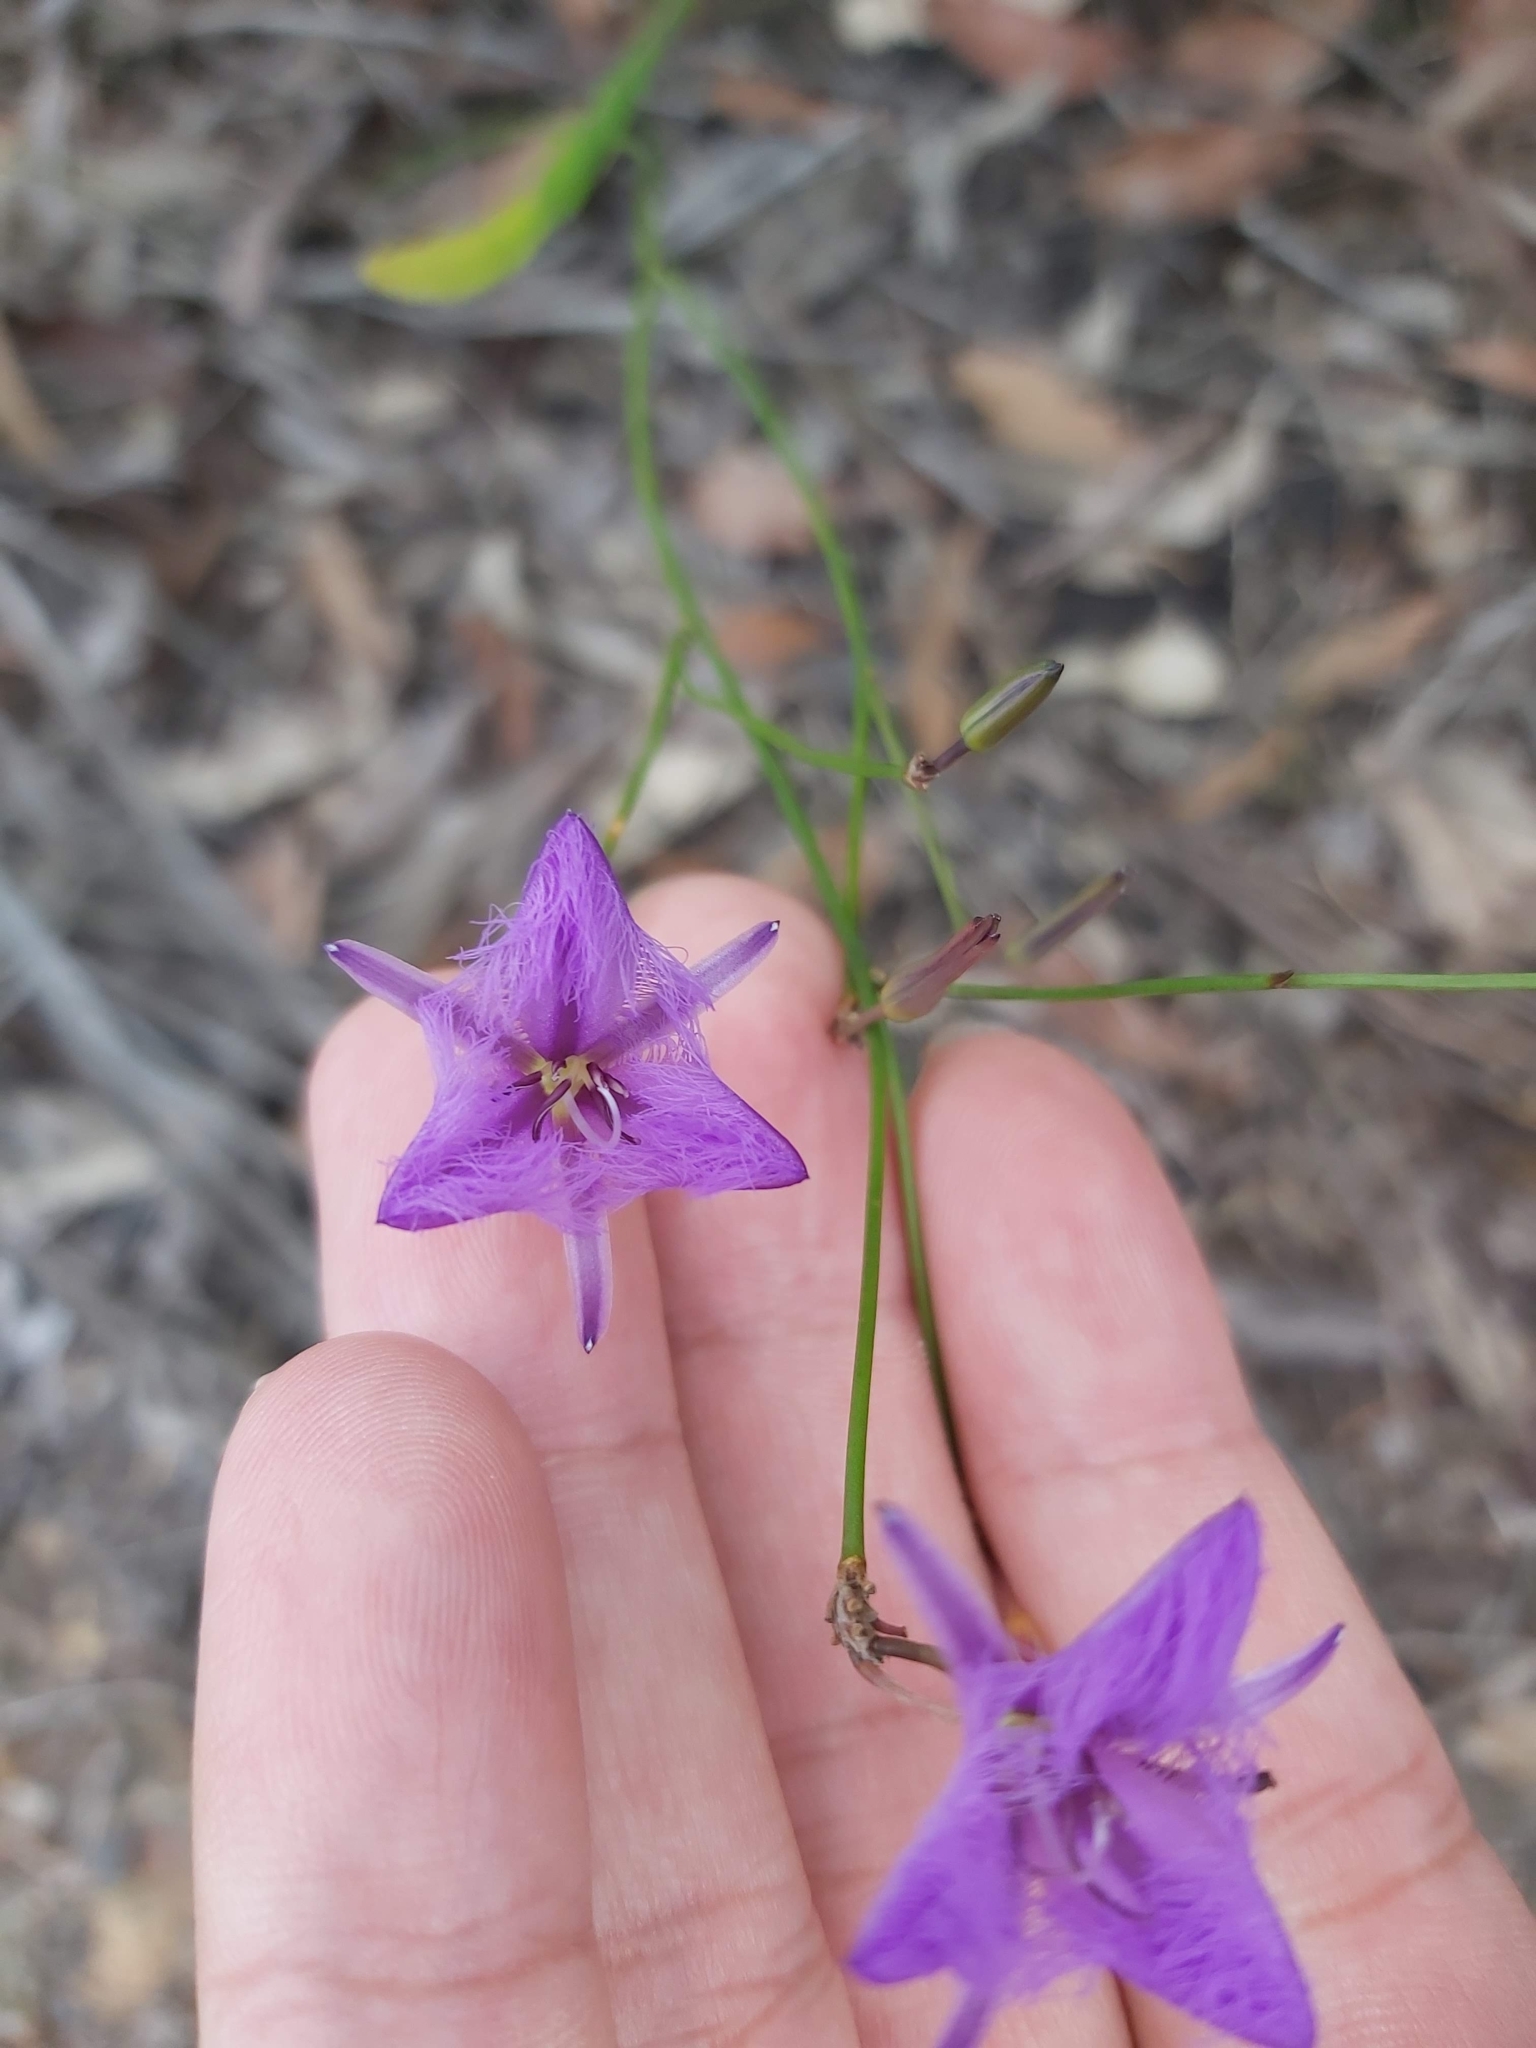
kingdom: Plantae
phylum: Tracheophyta
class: Liliopsida
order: Asparagales
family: Asparagaceae
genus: Thysanotus
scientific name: Thysanotus tuberosus
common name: Common fringed-lily
